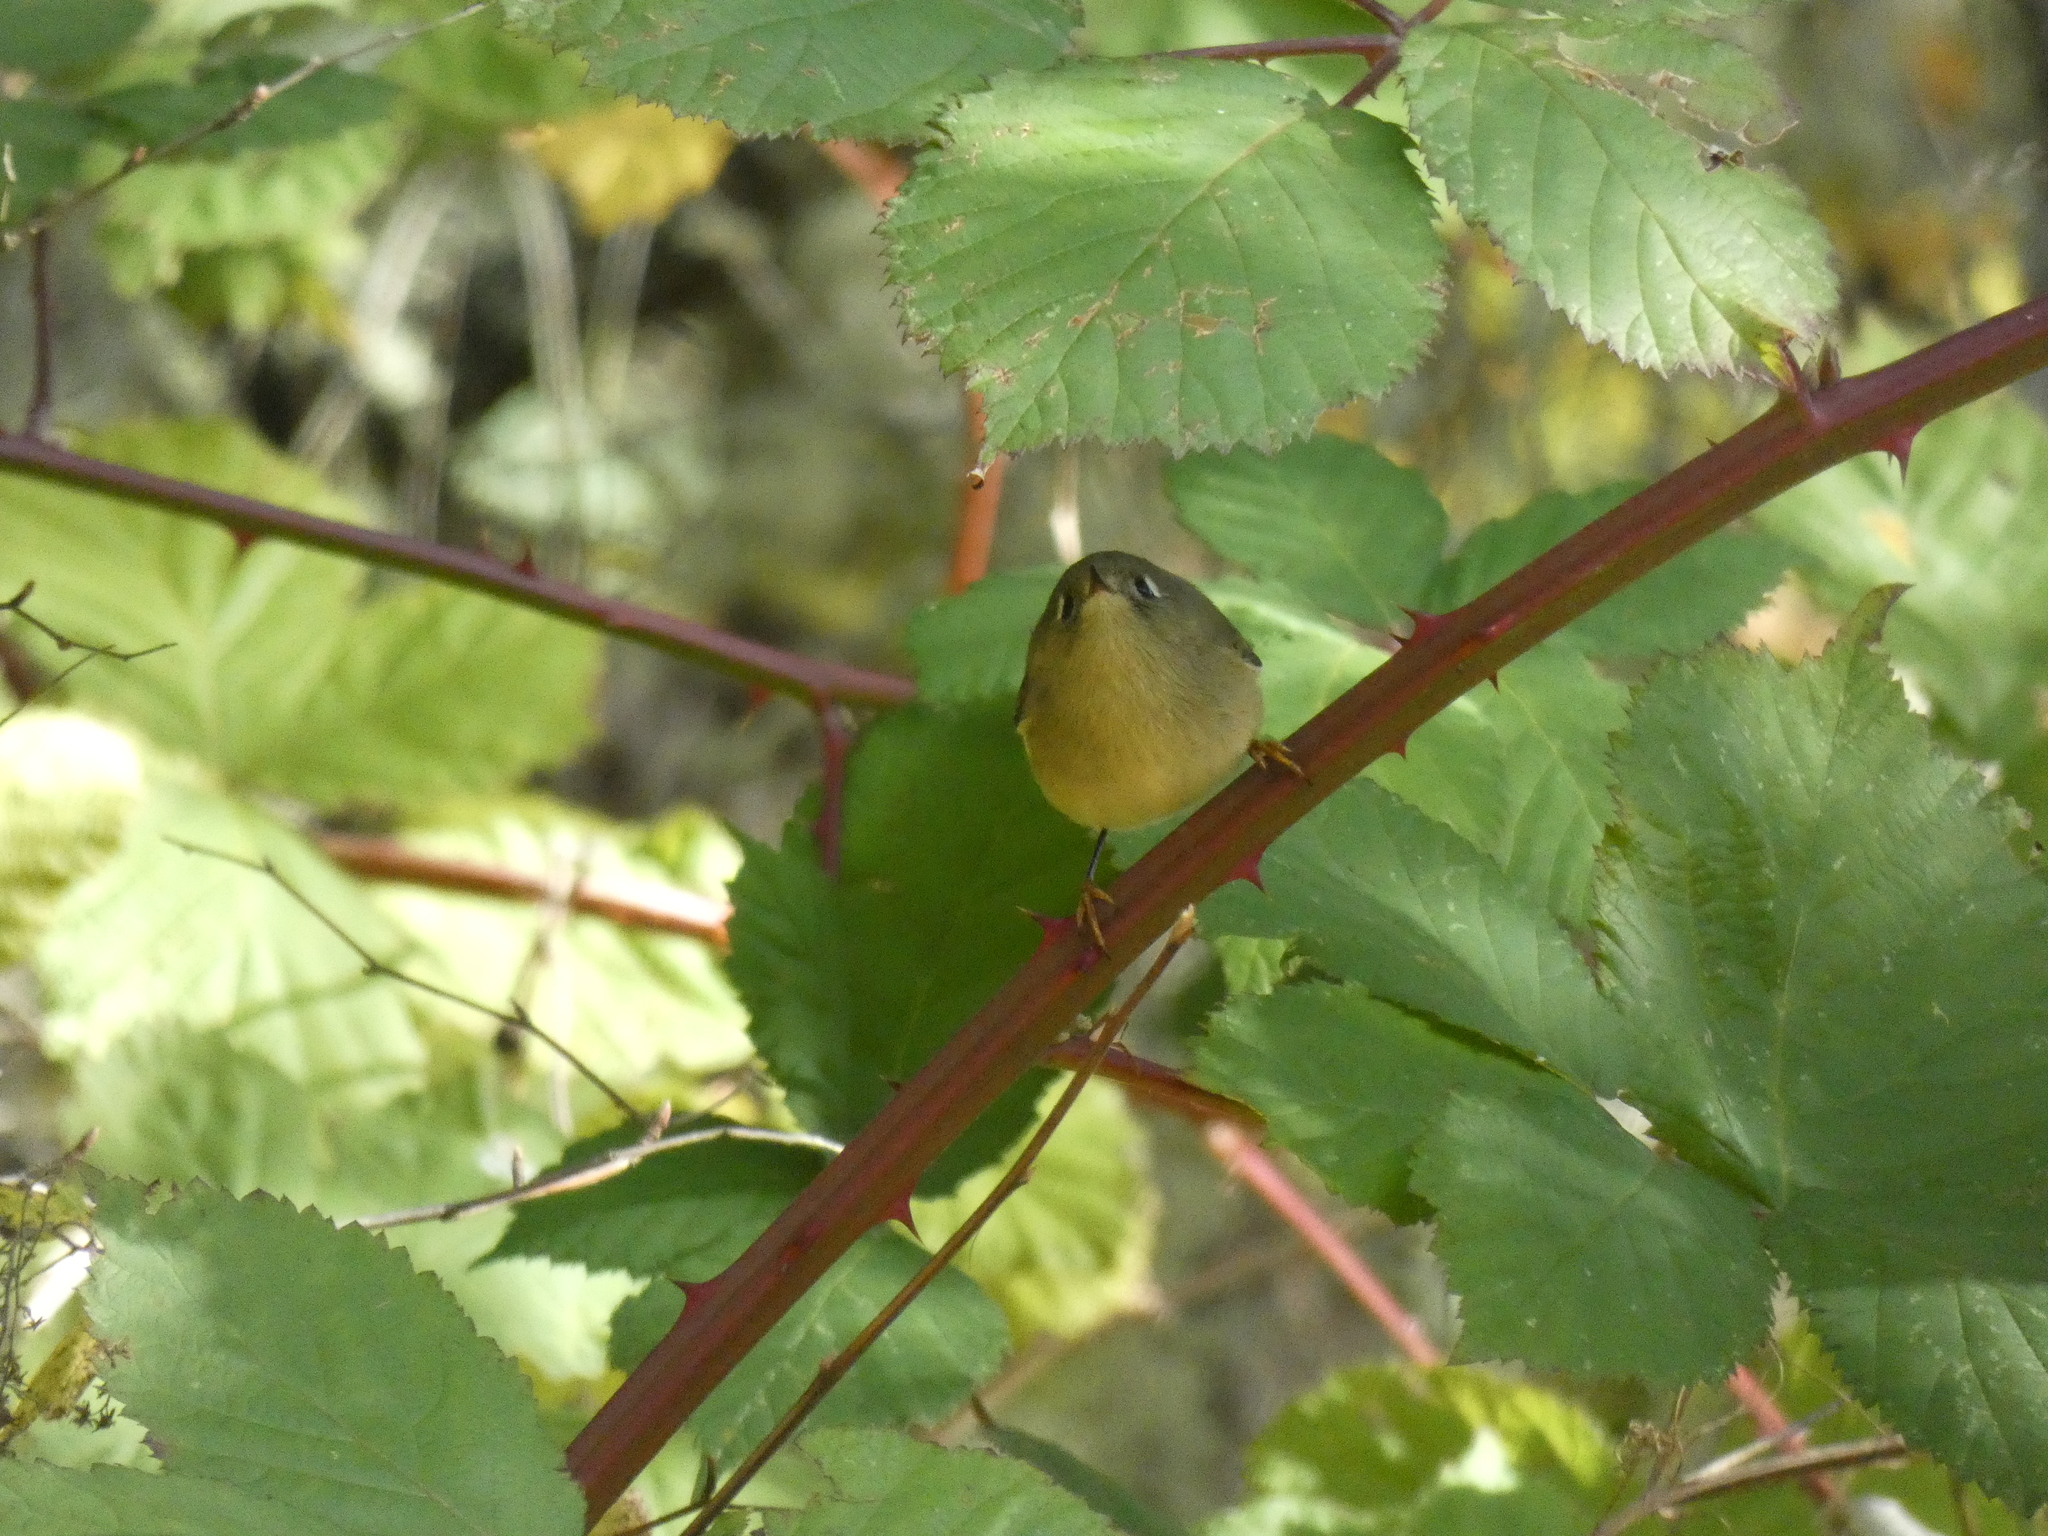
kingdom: Animalia
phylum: Chordata
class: Aves
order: Passeriformes
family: Regulidae
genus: Regulus
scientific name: Regulus calendula
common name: Ruby-crowned kinglet
